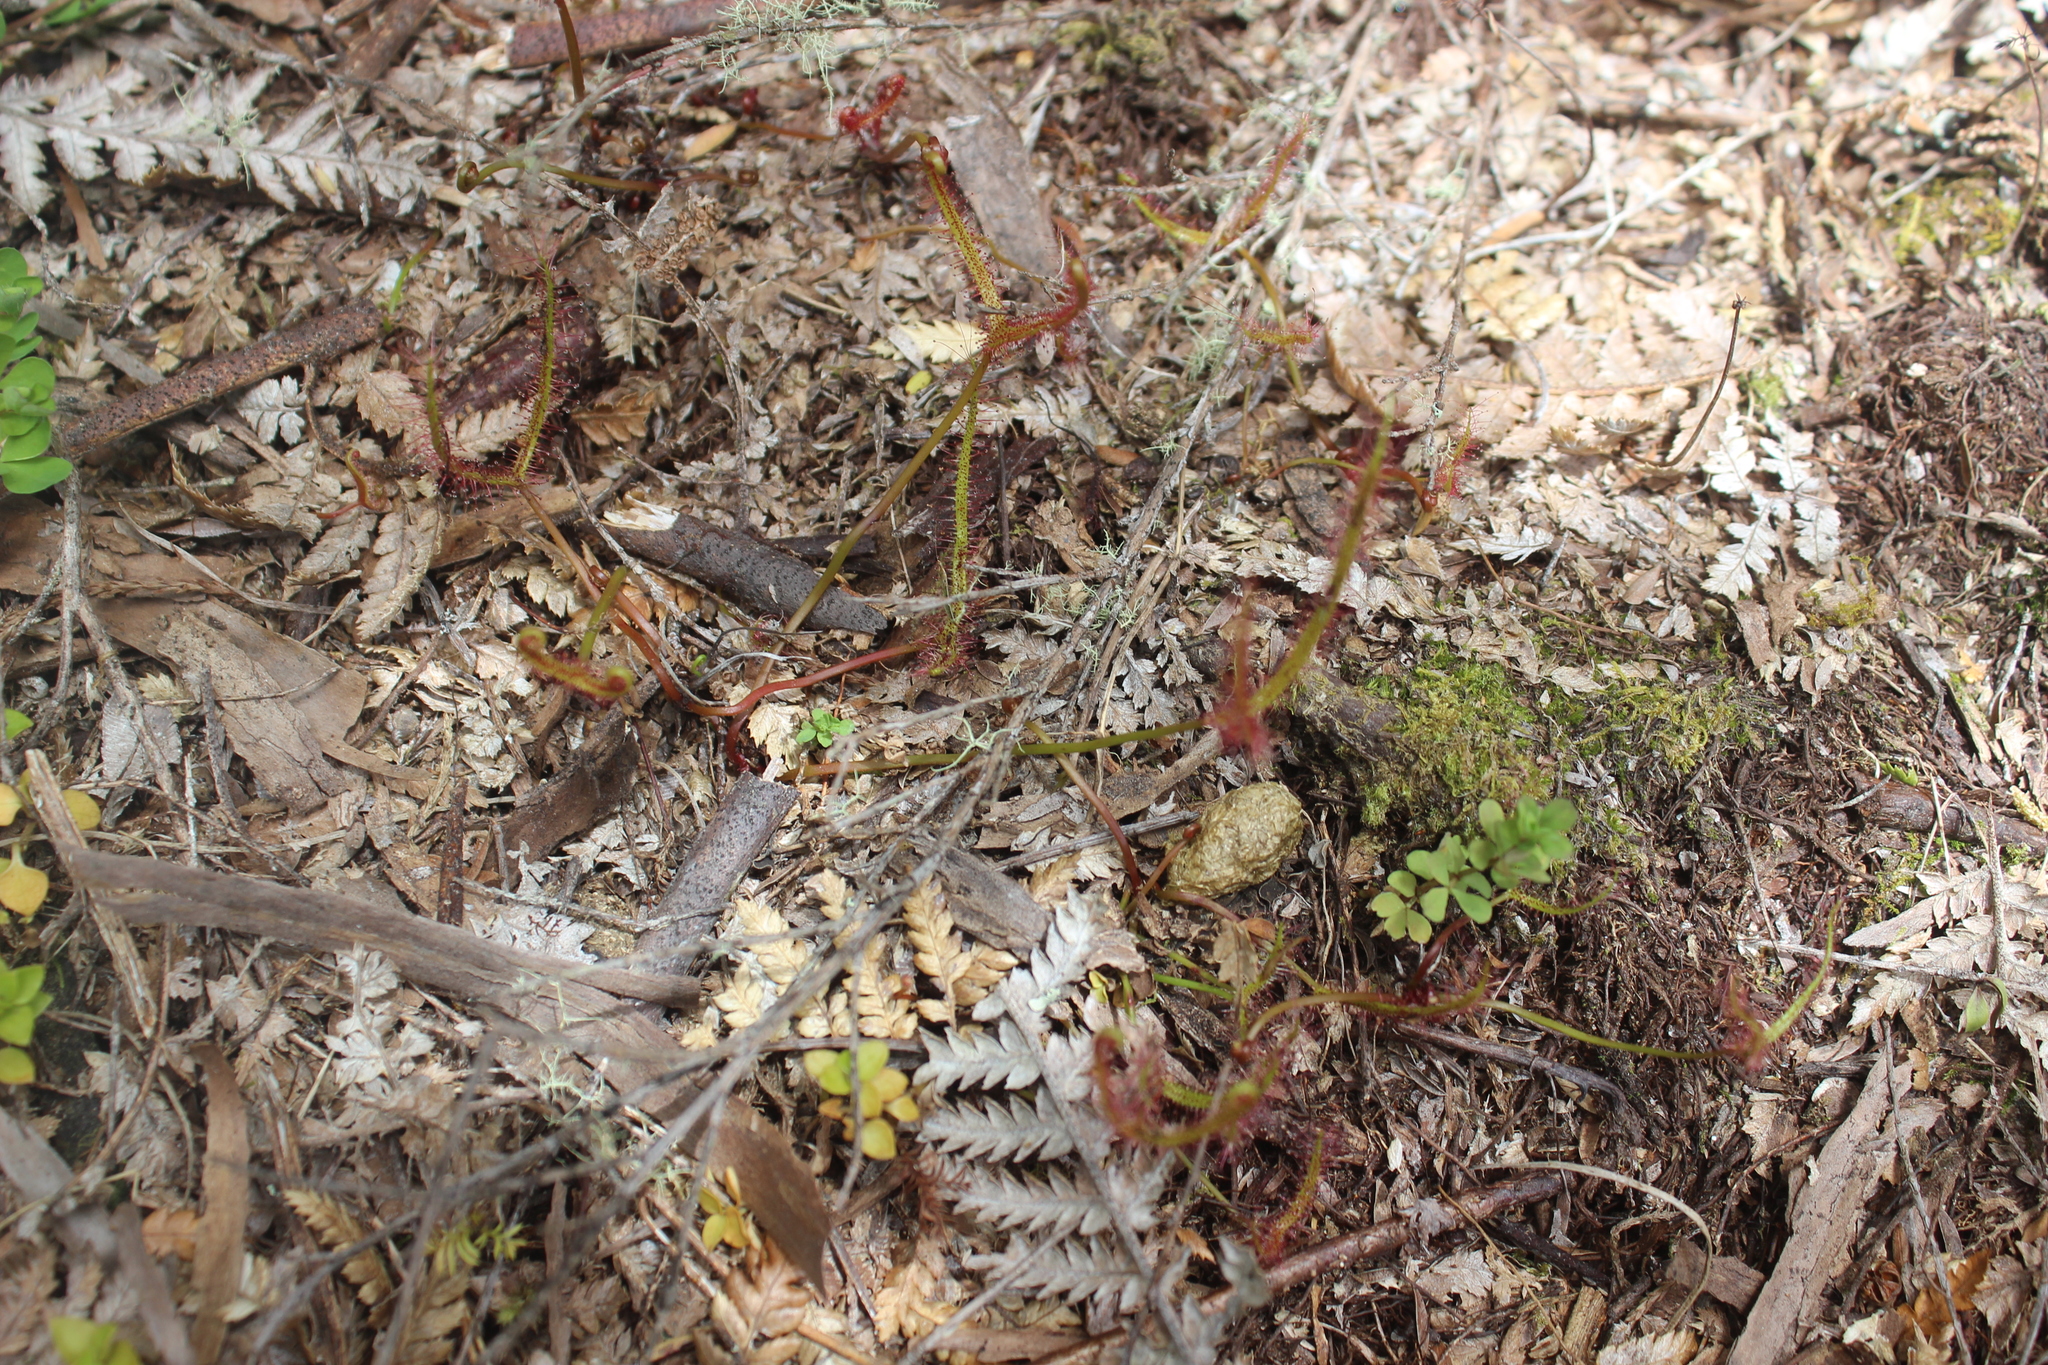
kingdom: Plantae
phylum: Tracheophyta
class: Magnoliopsida
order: Caryophyllales
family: Droseraceae
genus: Drosera
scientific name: Drosera binata
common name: Forked sundew
